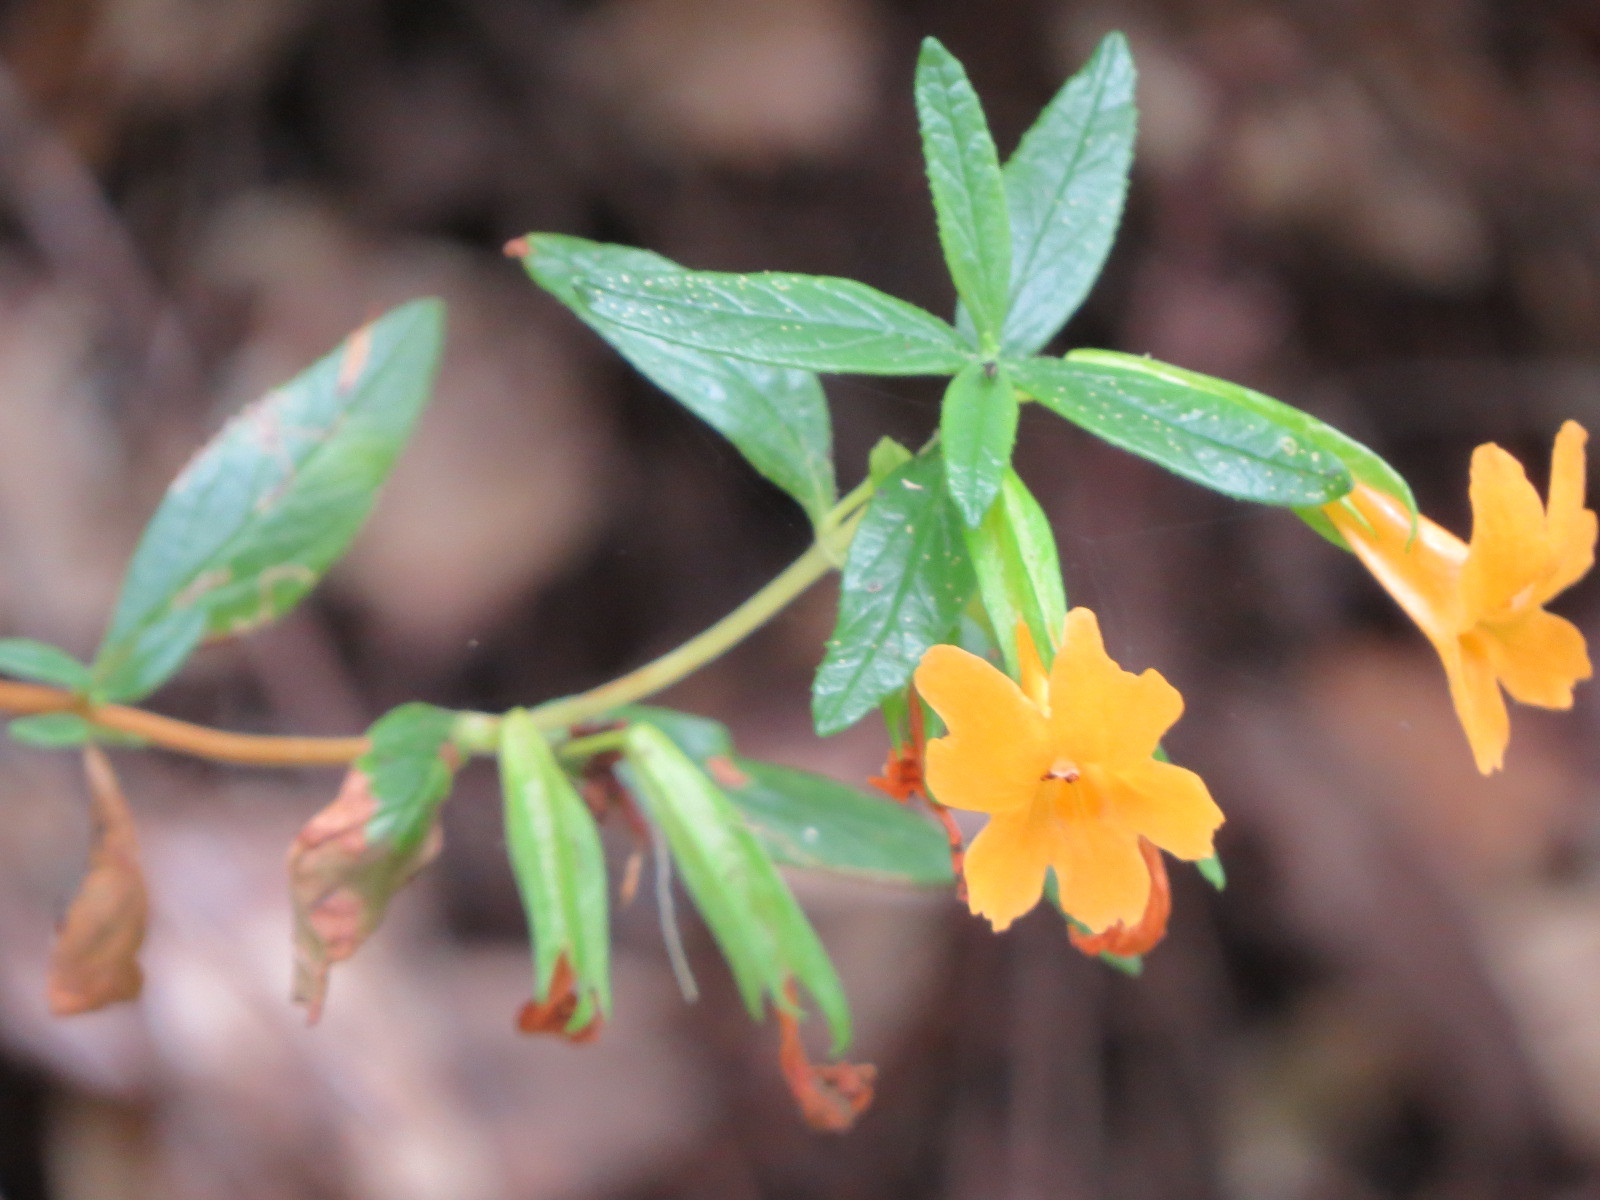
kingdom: Plantae
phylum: Tracheophyta
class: Magnoliopsida
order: Lamiales
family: Phrymaceae
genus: Diplacus
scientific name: Diplacus aurantiacus
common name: Bush monkey-flower
